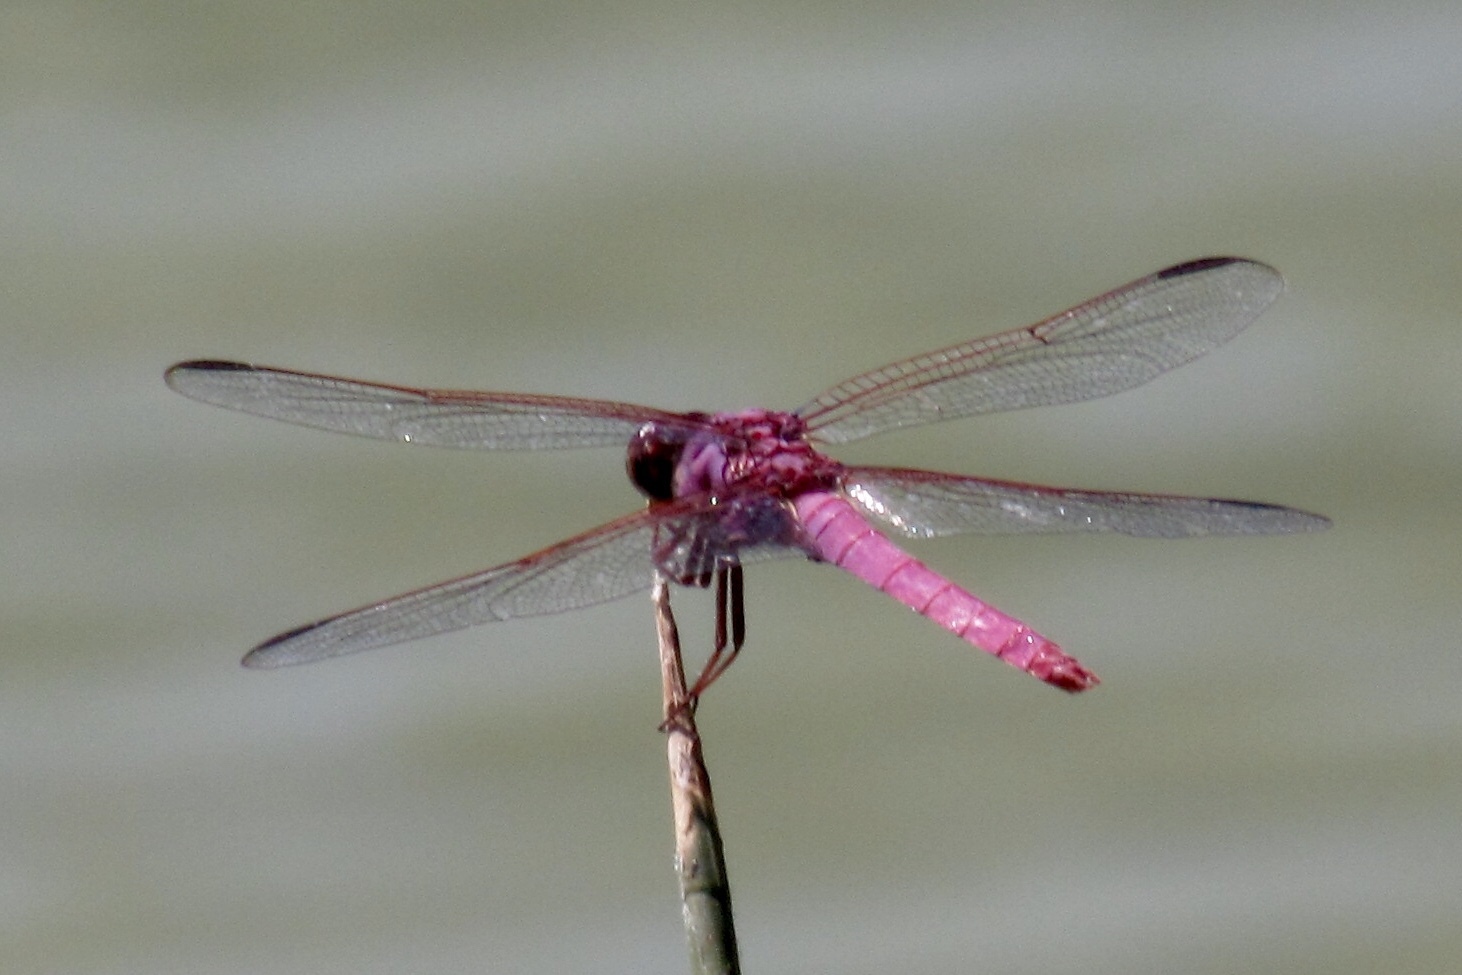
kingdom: Animalia
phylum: Arthropoda
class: Insecta
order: Odonata
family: Libellulidae
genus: Orthemis
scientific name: Orthemis ferruginea
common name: Roseate skimmer
